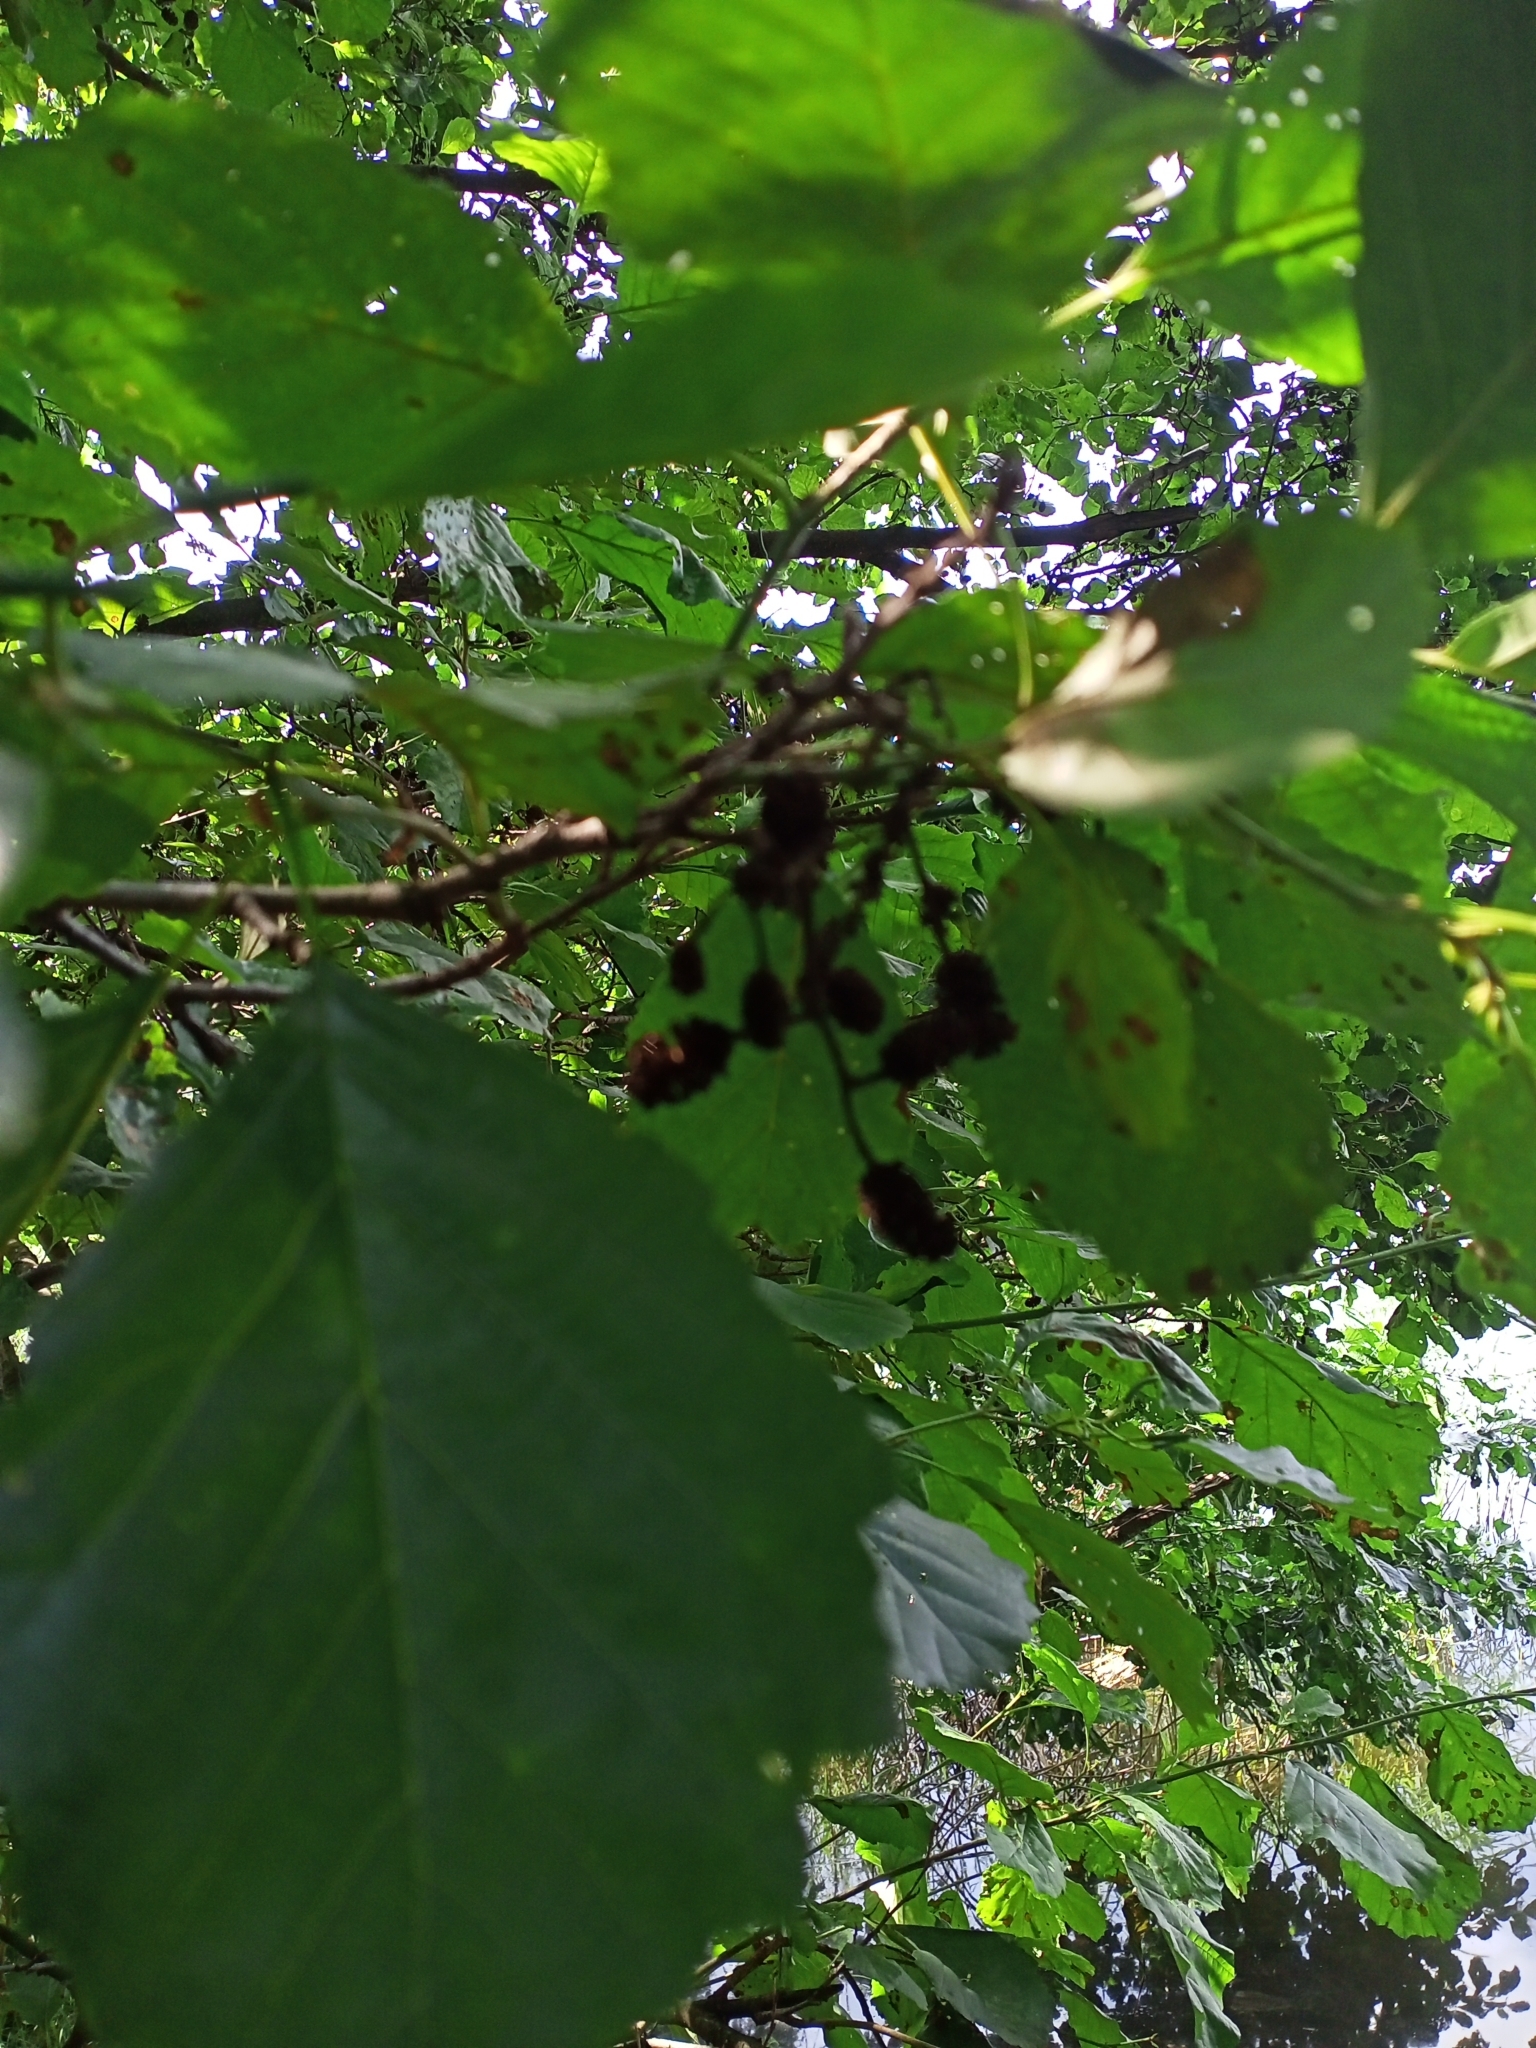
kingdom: Plantae
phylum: Tracheophyta
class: Magnoliopsida
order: Fagales
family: Betulaceae
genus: Alnus
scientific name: Alnus glutinosa
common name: Black alder
